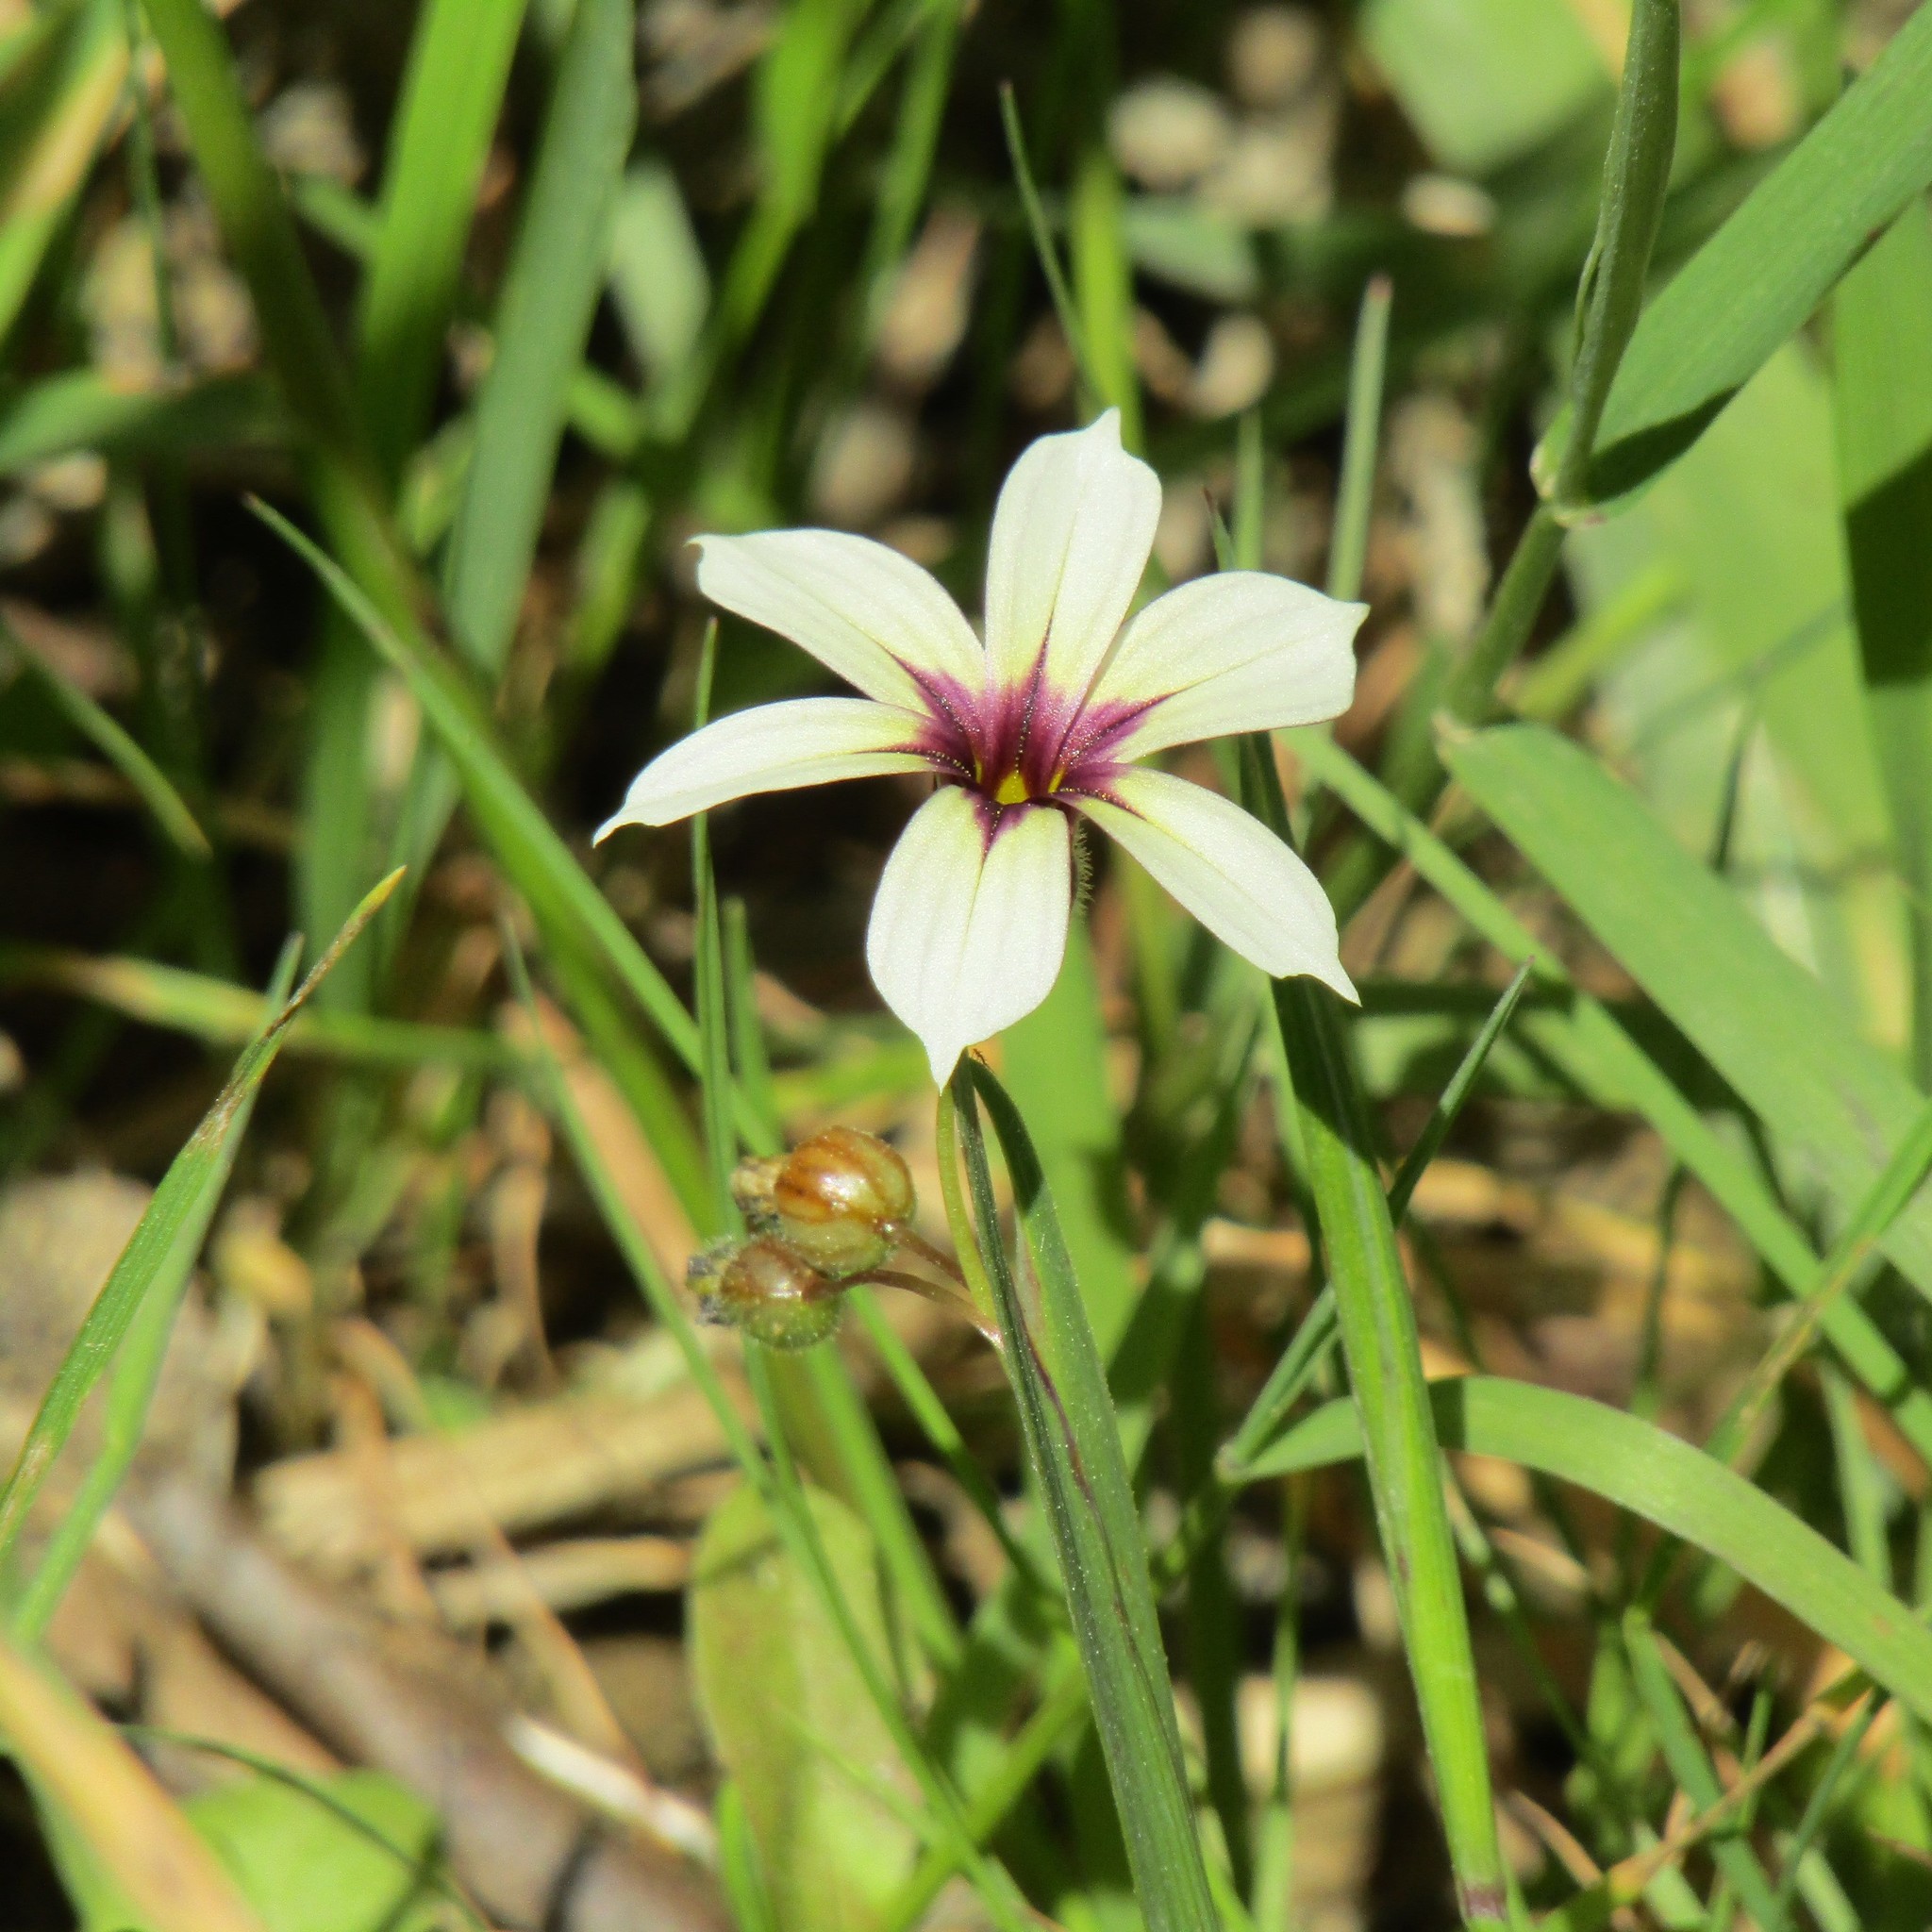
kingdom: Plantae
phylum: Tracheophyta
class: Liliopsida
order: Asparagales
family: Iridaceae
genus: Sisyrinchium
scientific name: Sisyrinchium micranthum
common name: Bermuda pigroot
